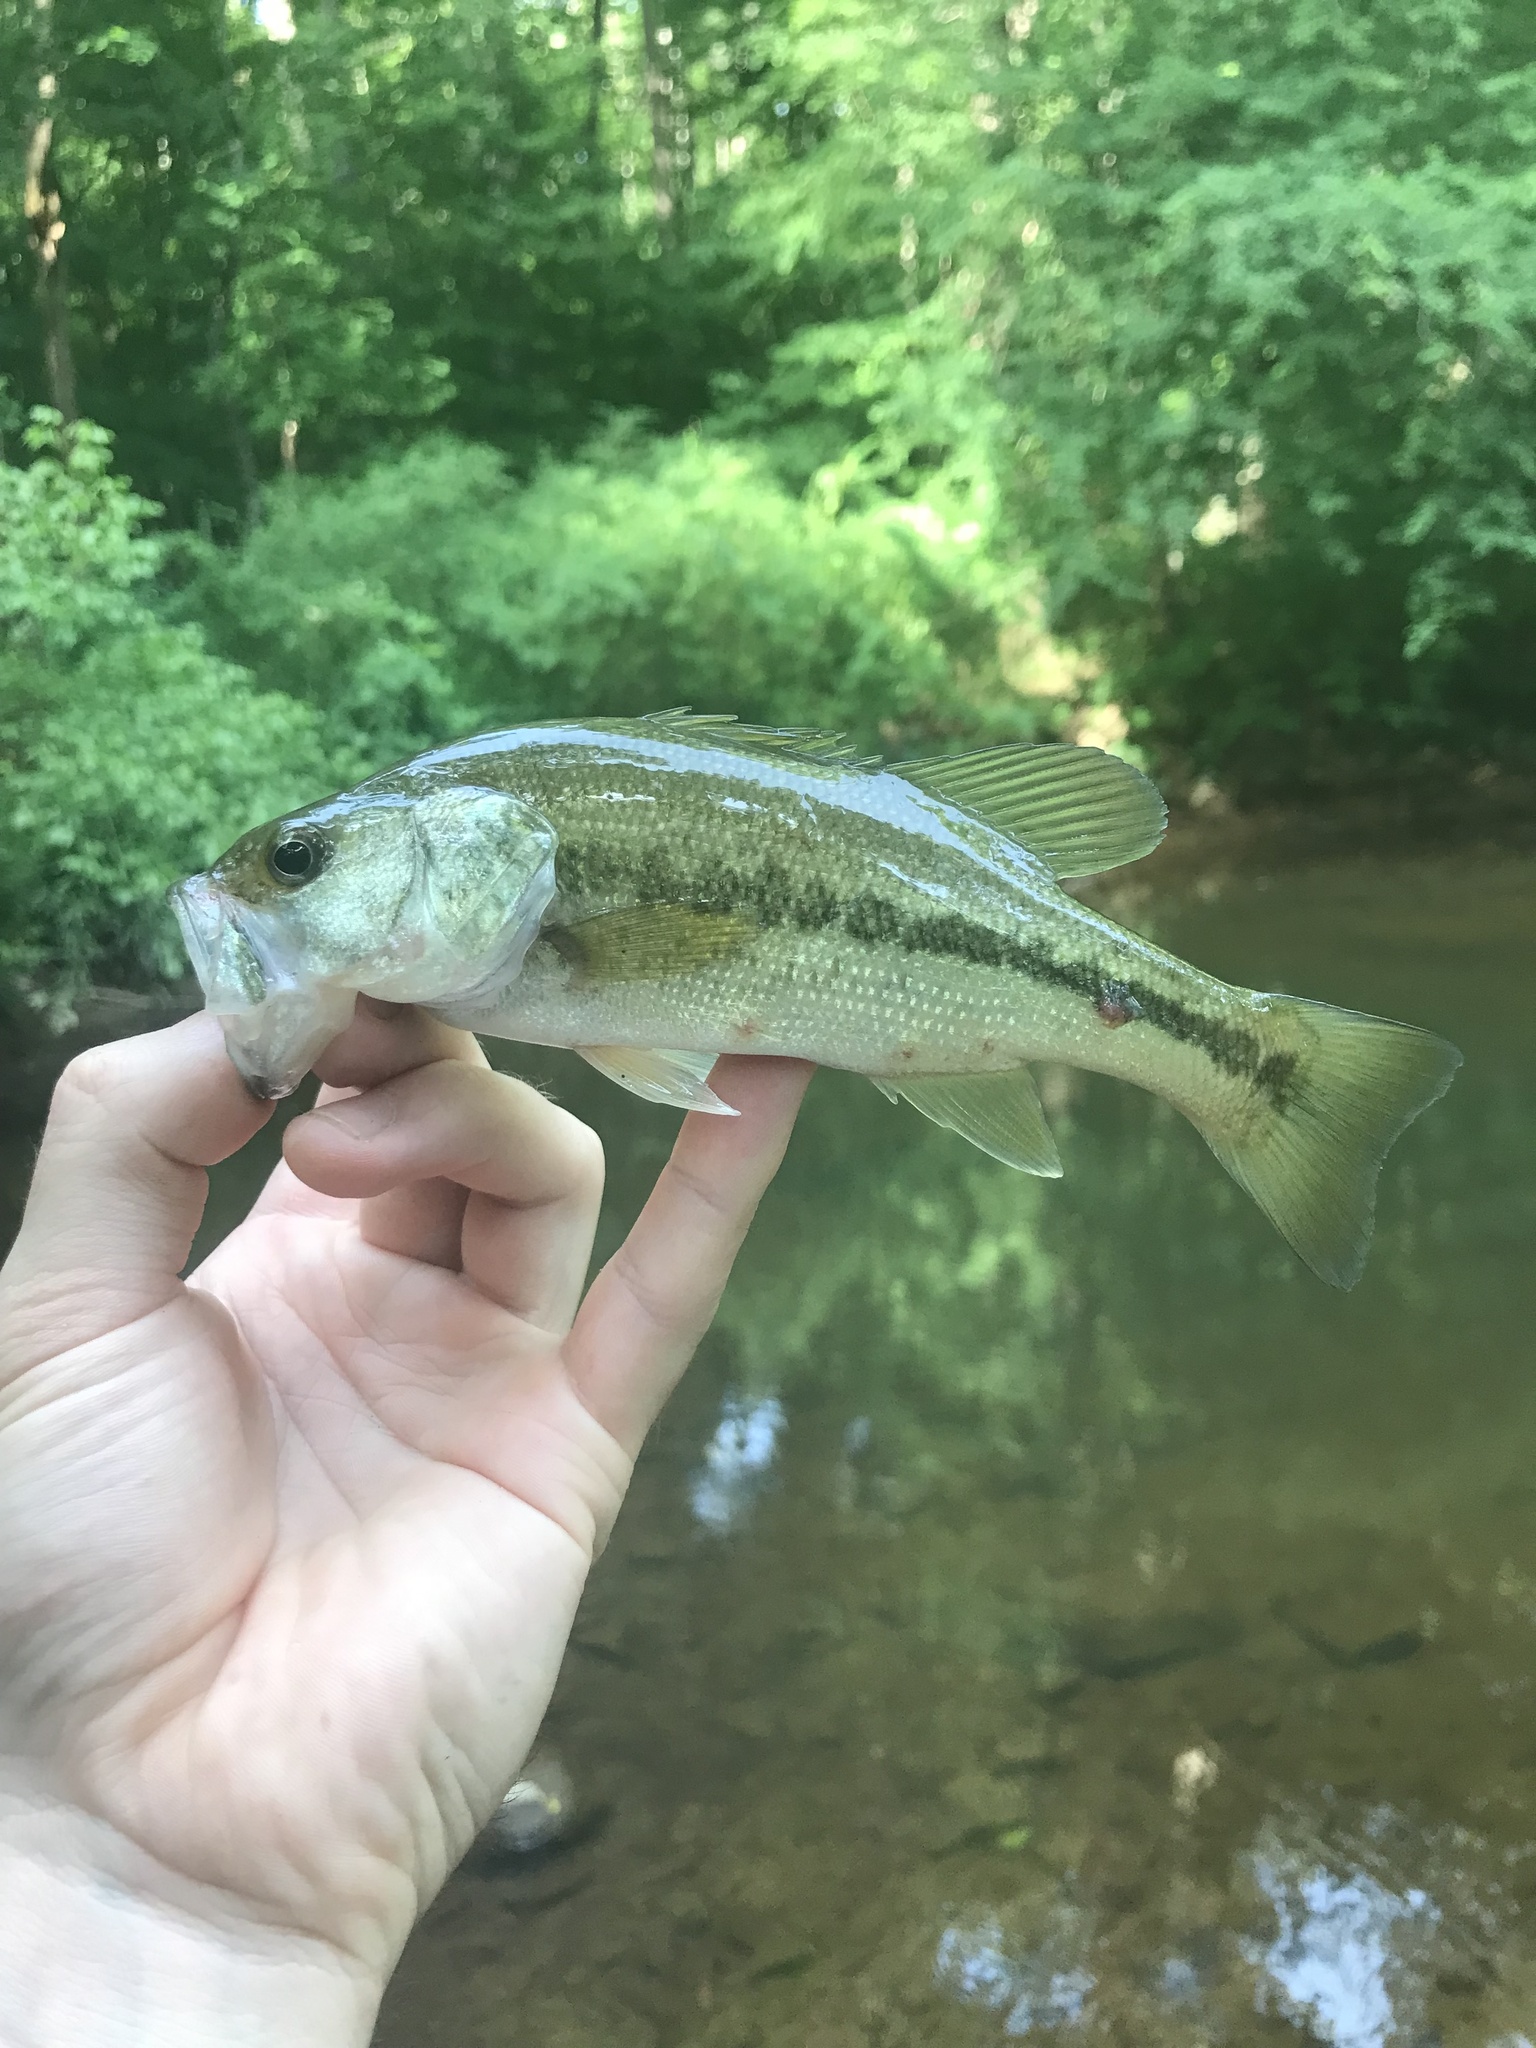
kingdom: Animalia
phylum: Chordata
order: Perciformes
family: Centrarchidae
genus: Micropterus
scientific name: Micropterus
